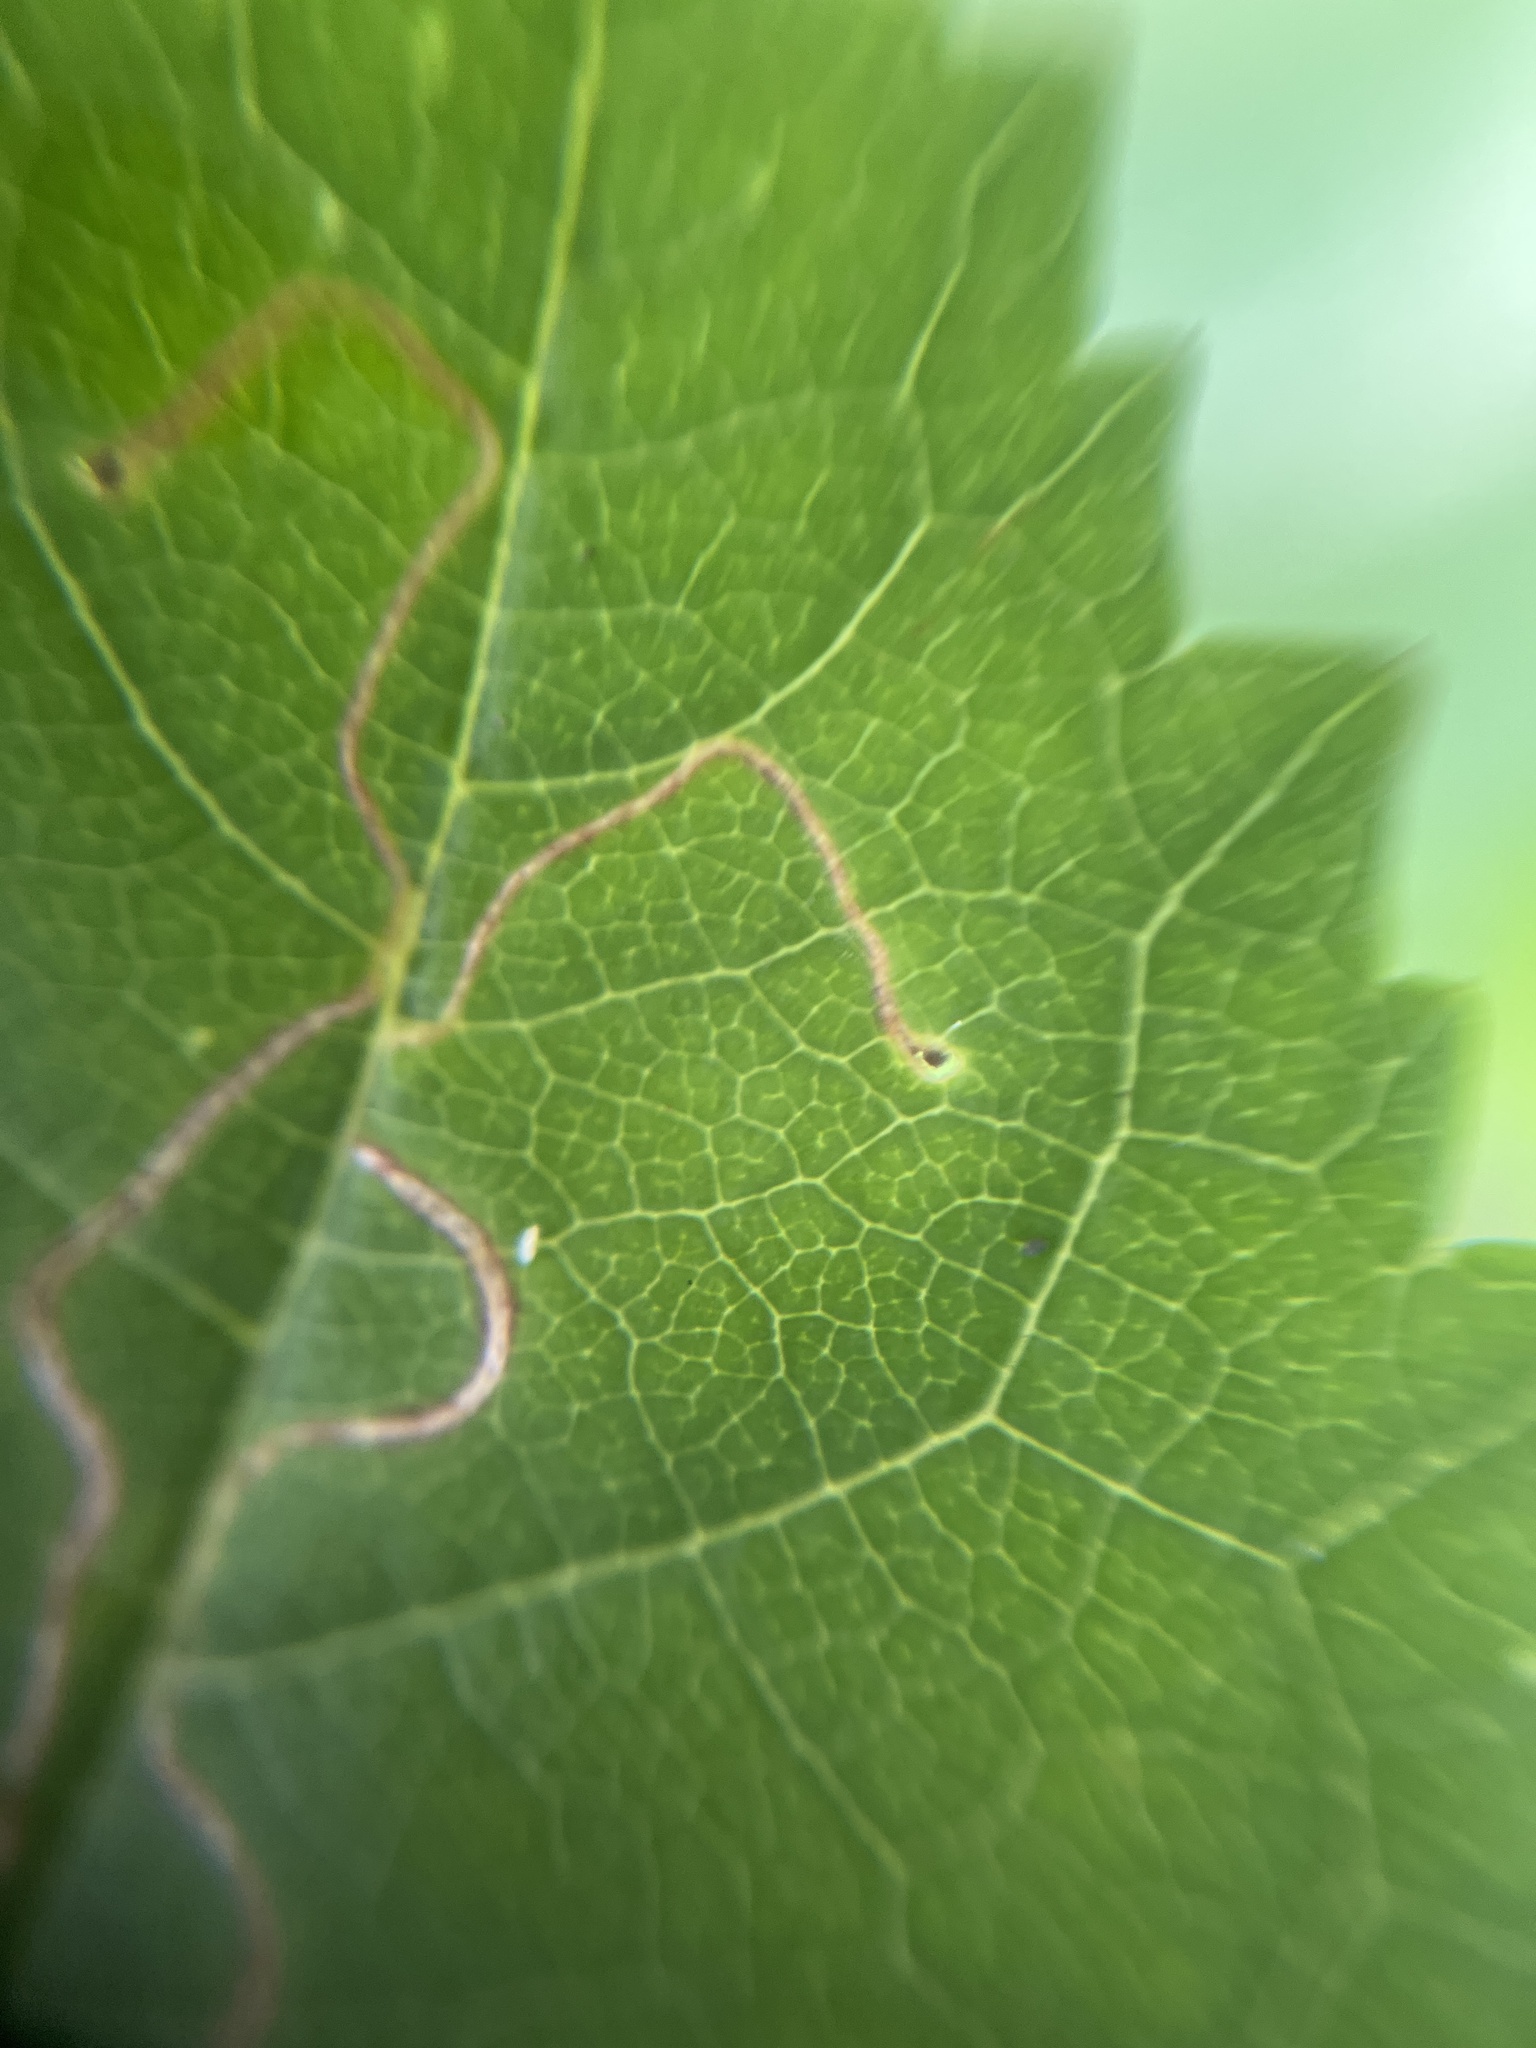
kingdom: Animalia
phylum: Arthropoda
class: Insecta
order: Lepidoptera
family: Lyonetiidae
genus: Lyonetia
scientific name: Lyonetia clerkella
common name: Apple leaf miner
